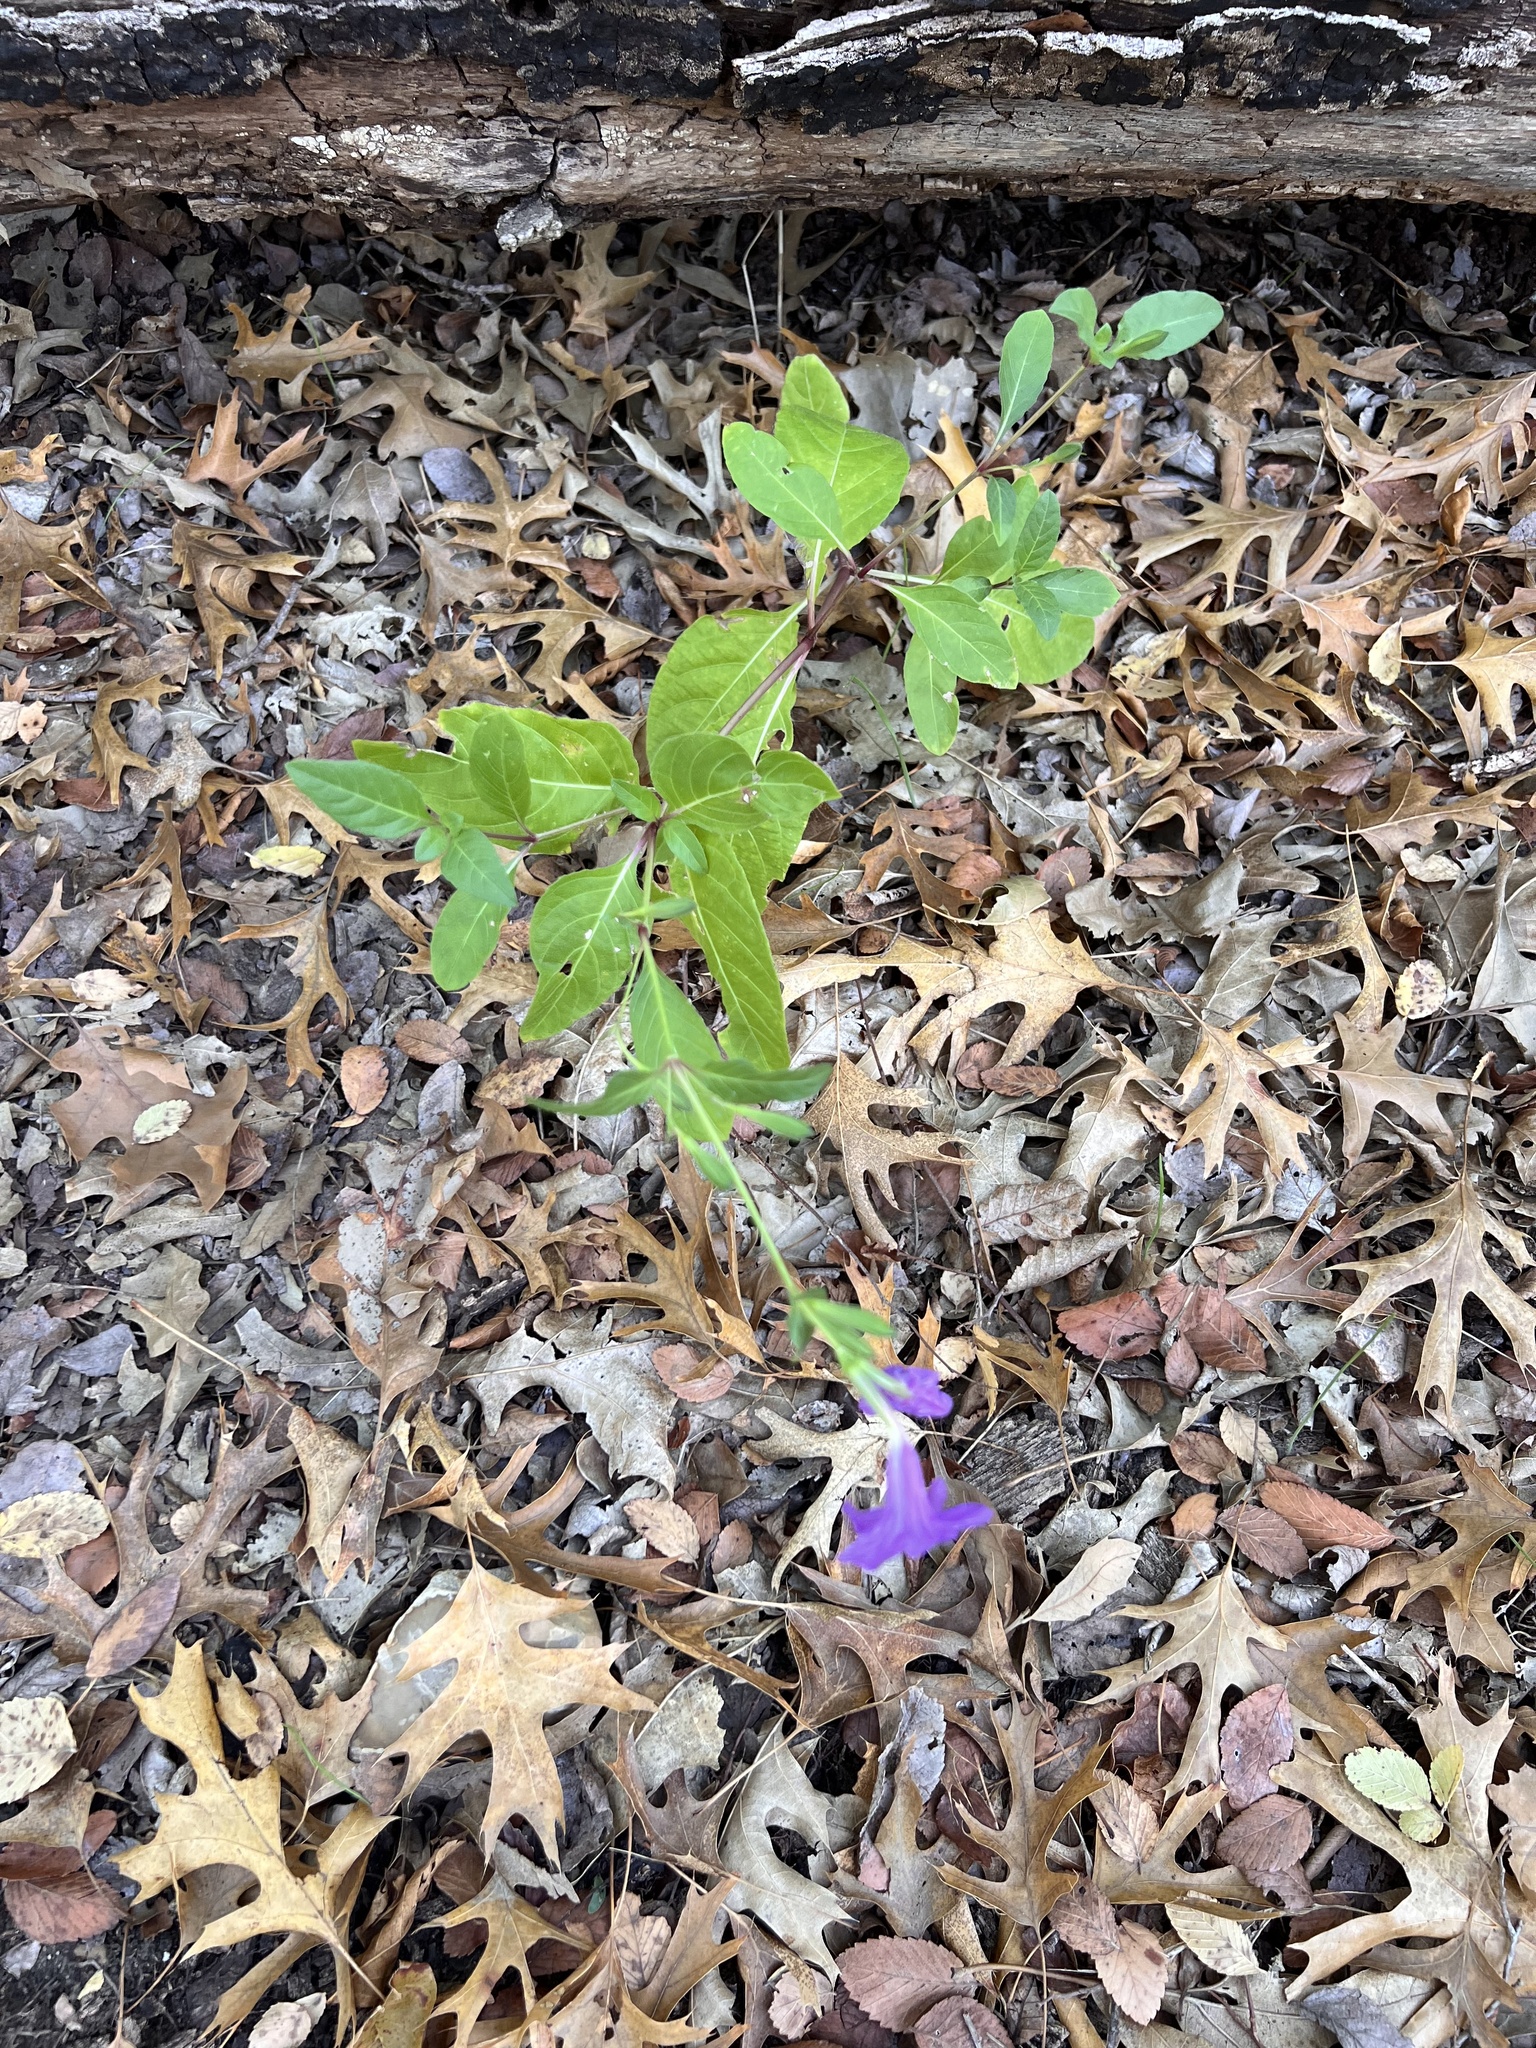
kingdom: Plantae
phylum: Tracheophyta
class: Magnoliopsida
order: Lamiales
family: Acanthaceae
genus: Ruellia
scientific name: Ruellia ciliatiflora
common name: Hairyflower wild petunia
